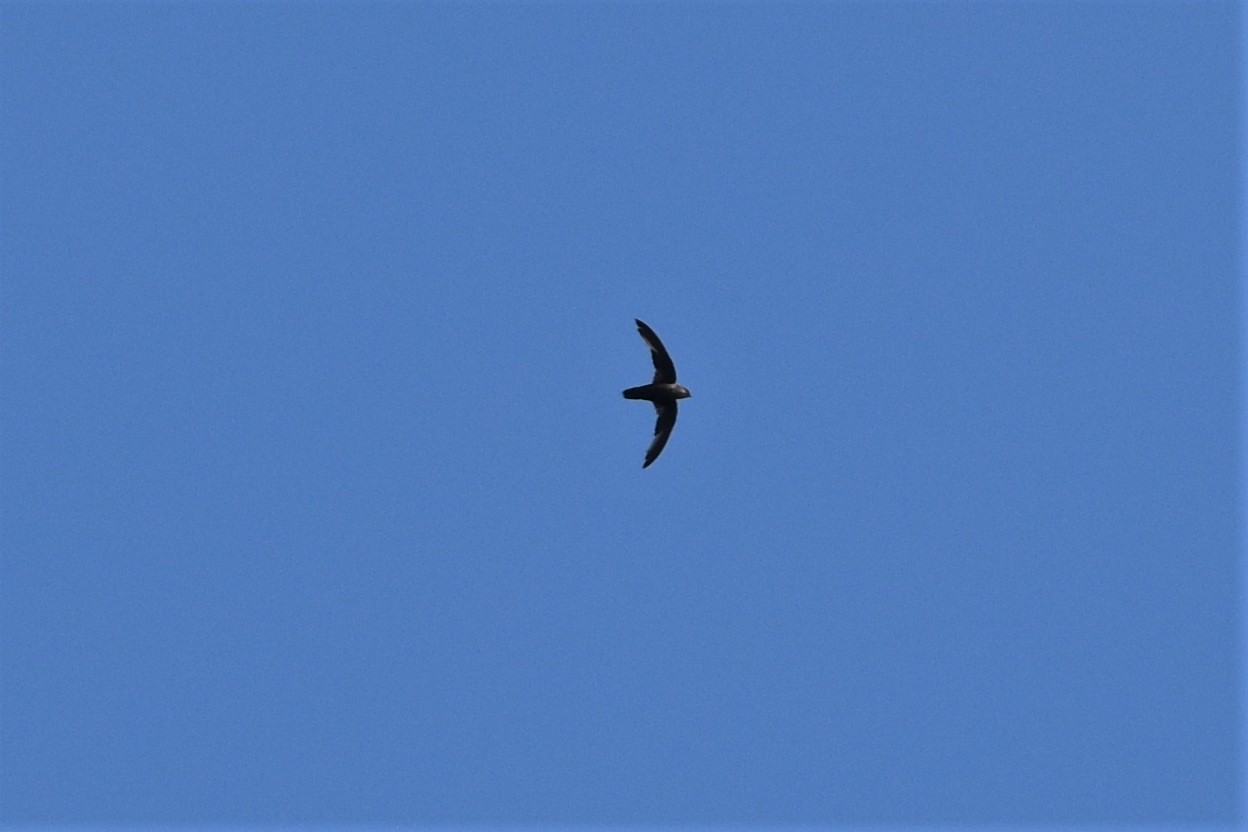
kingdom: Animalia
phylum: Chordata
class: Aves
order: Apodiformes
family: Apodidae
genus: Chaetura
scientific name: Chaetura pelagica
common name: Chimney swift
